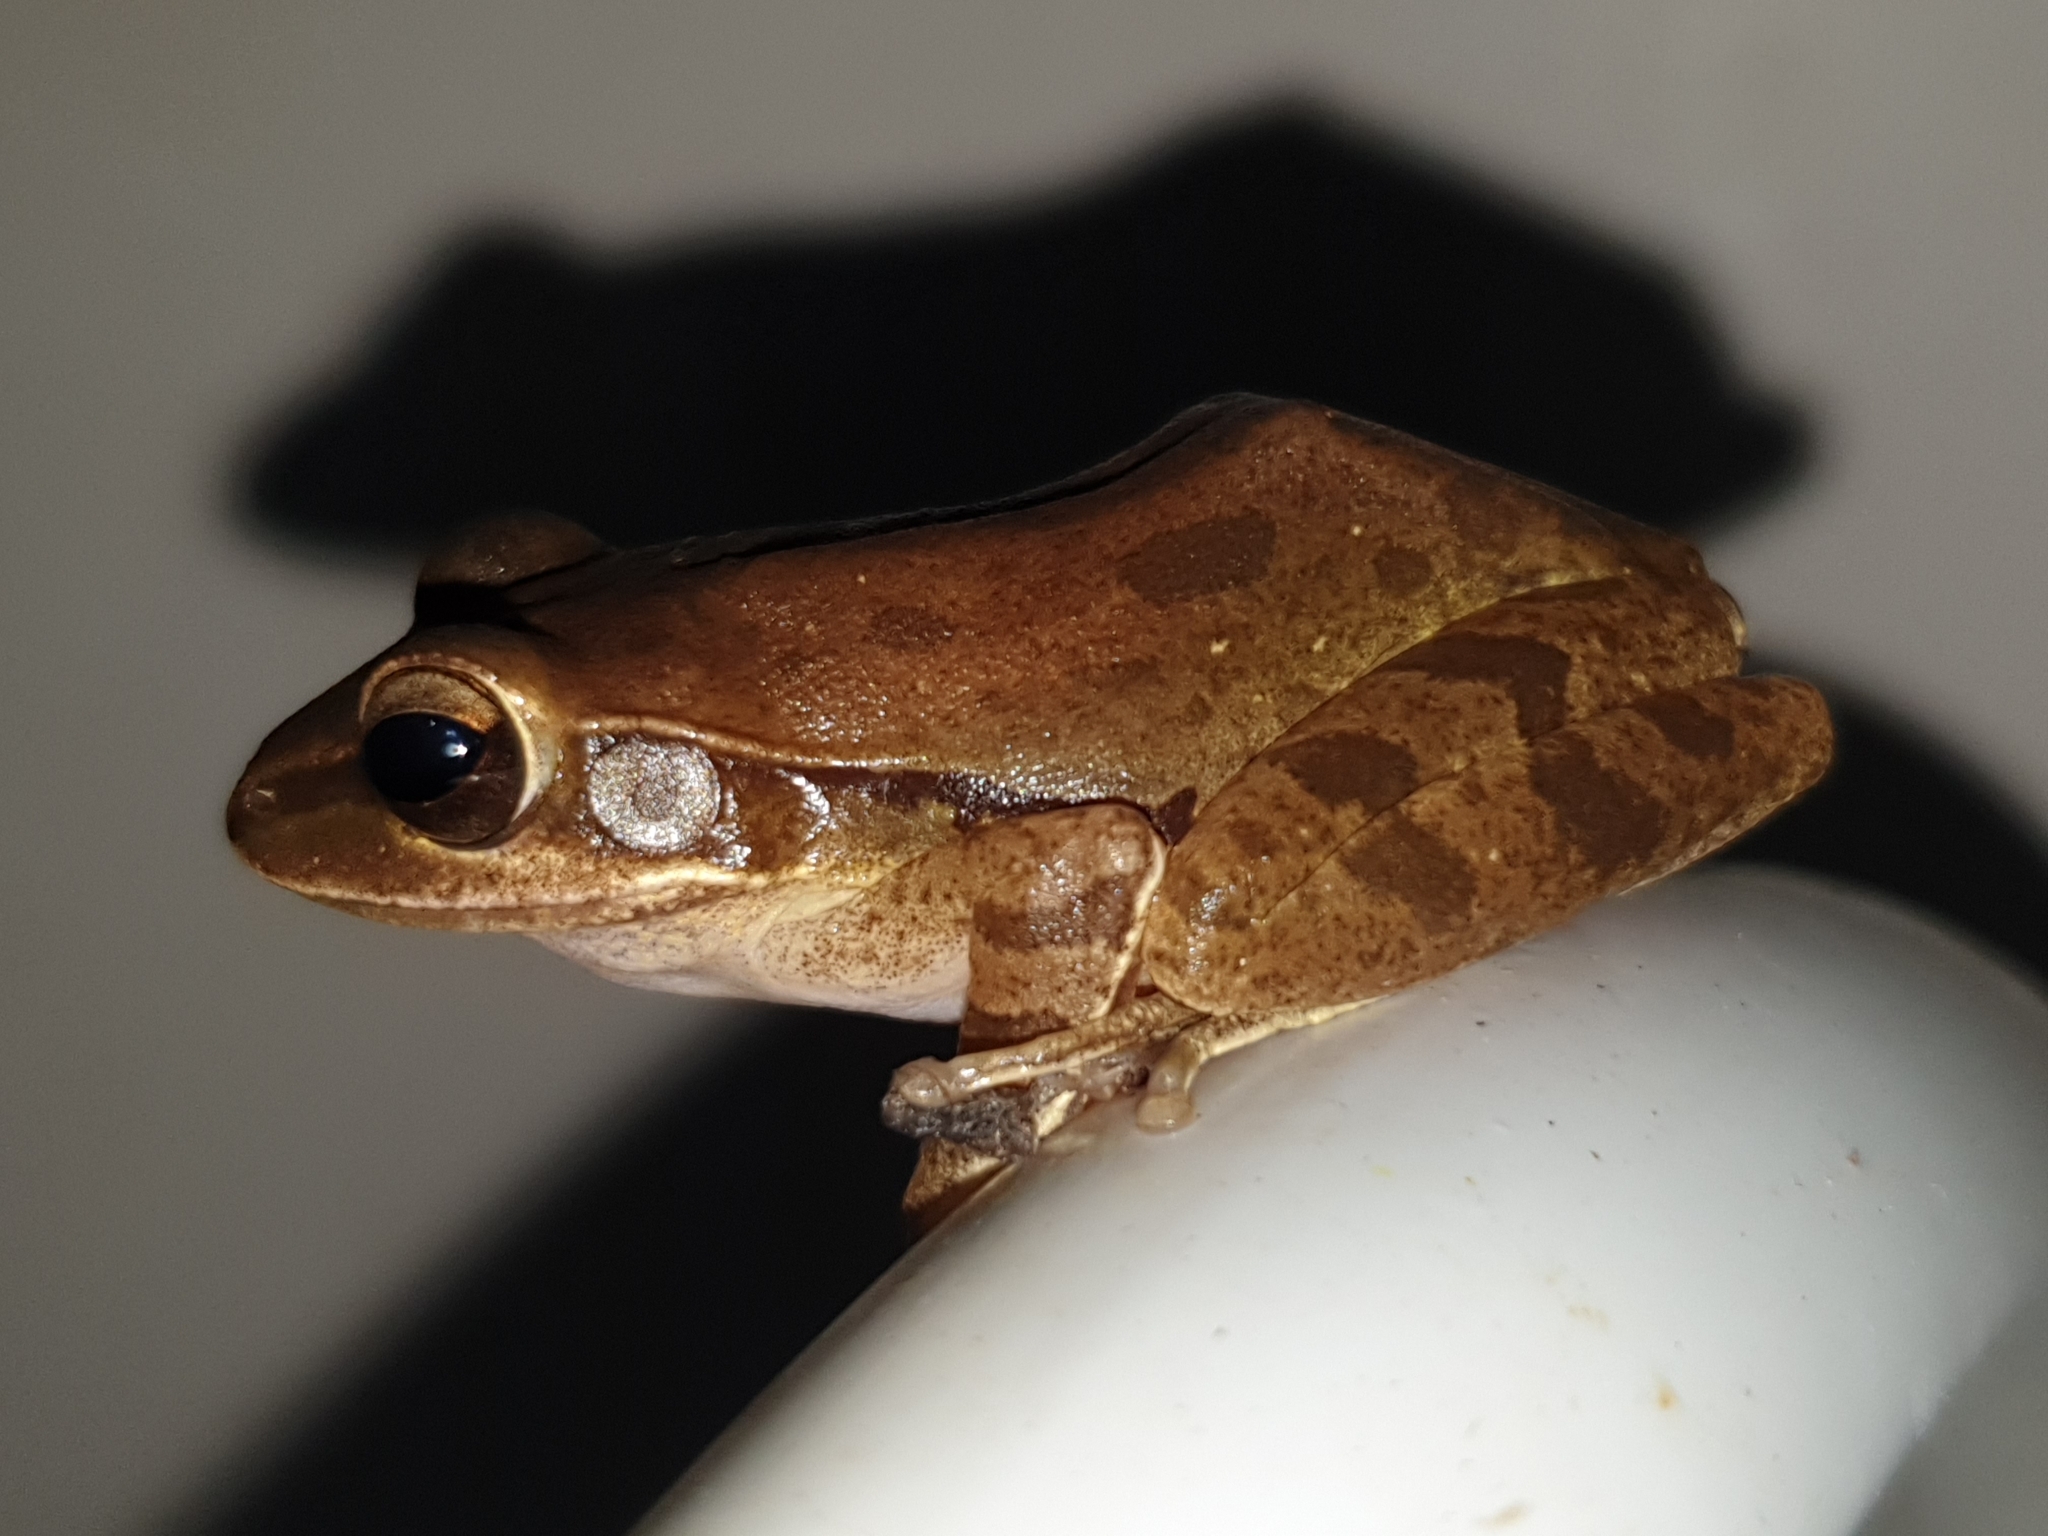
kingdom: Animalia
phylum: Chordata
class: Amphibia
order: Anura
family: Rhacophoridae
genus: Polypedates
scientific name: Polypedates maculatus
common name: Himalayan tree frog
